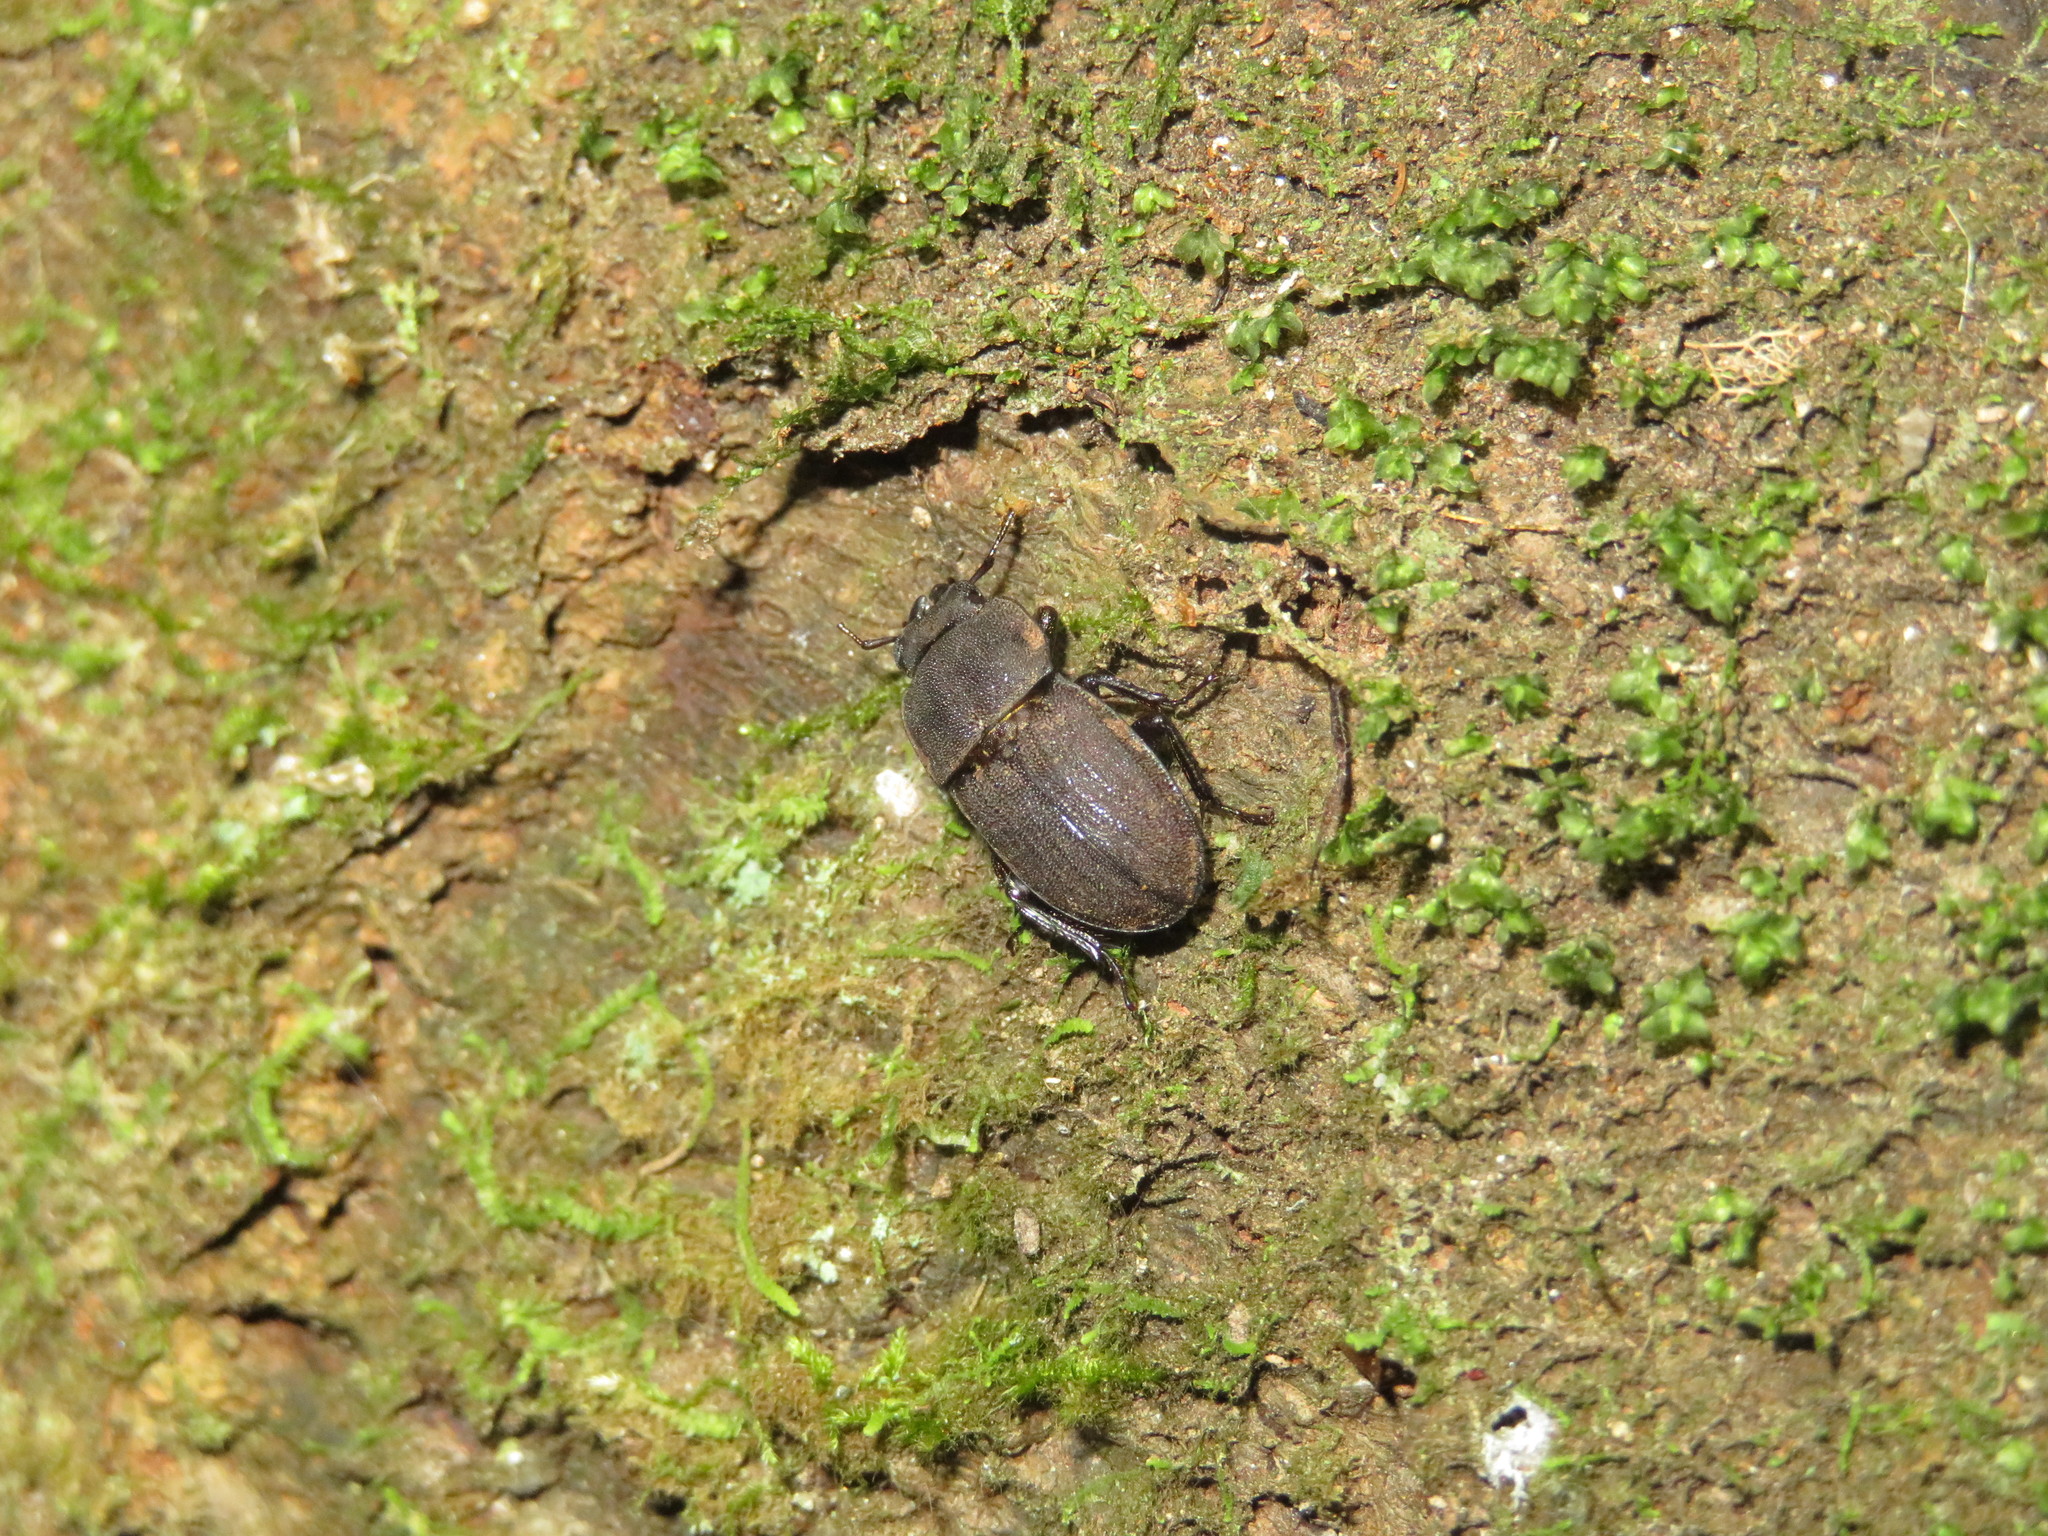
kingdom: Animalia
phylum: Arthropoda
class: Insecta
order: Coleoptera
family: Lucanidae
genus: Geodorcus
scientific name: Geodorcus novaezealandiae
